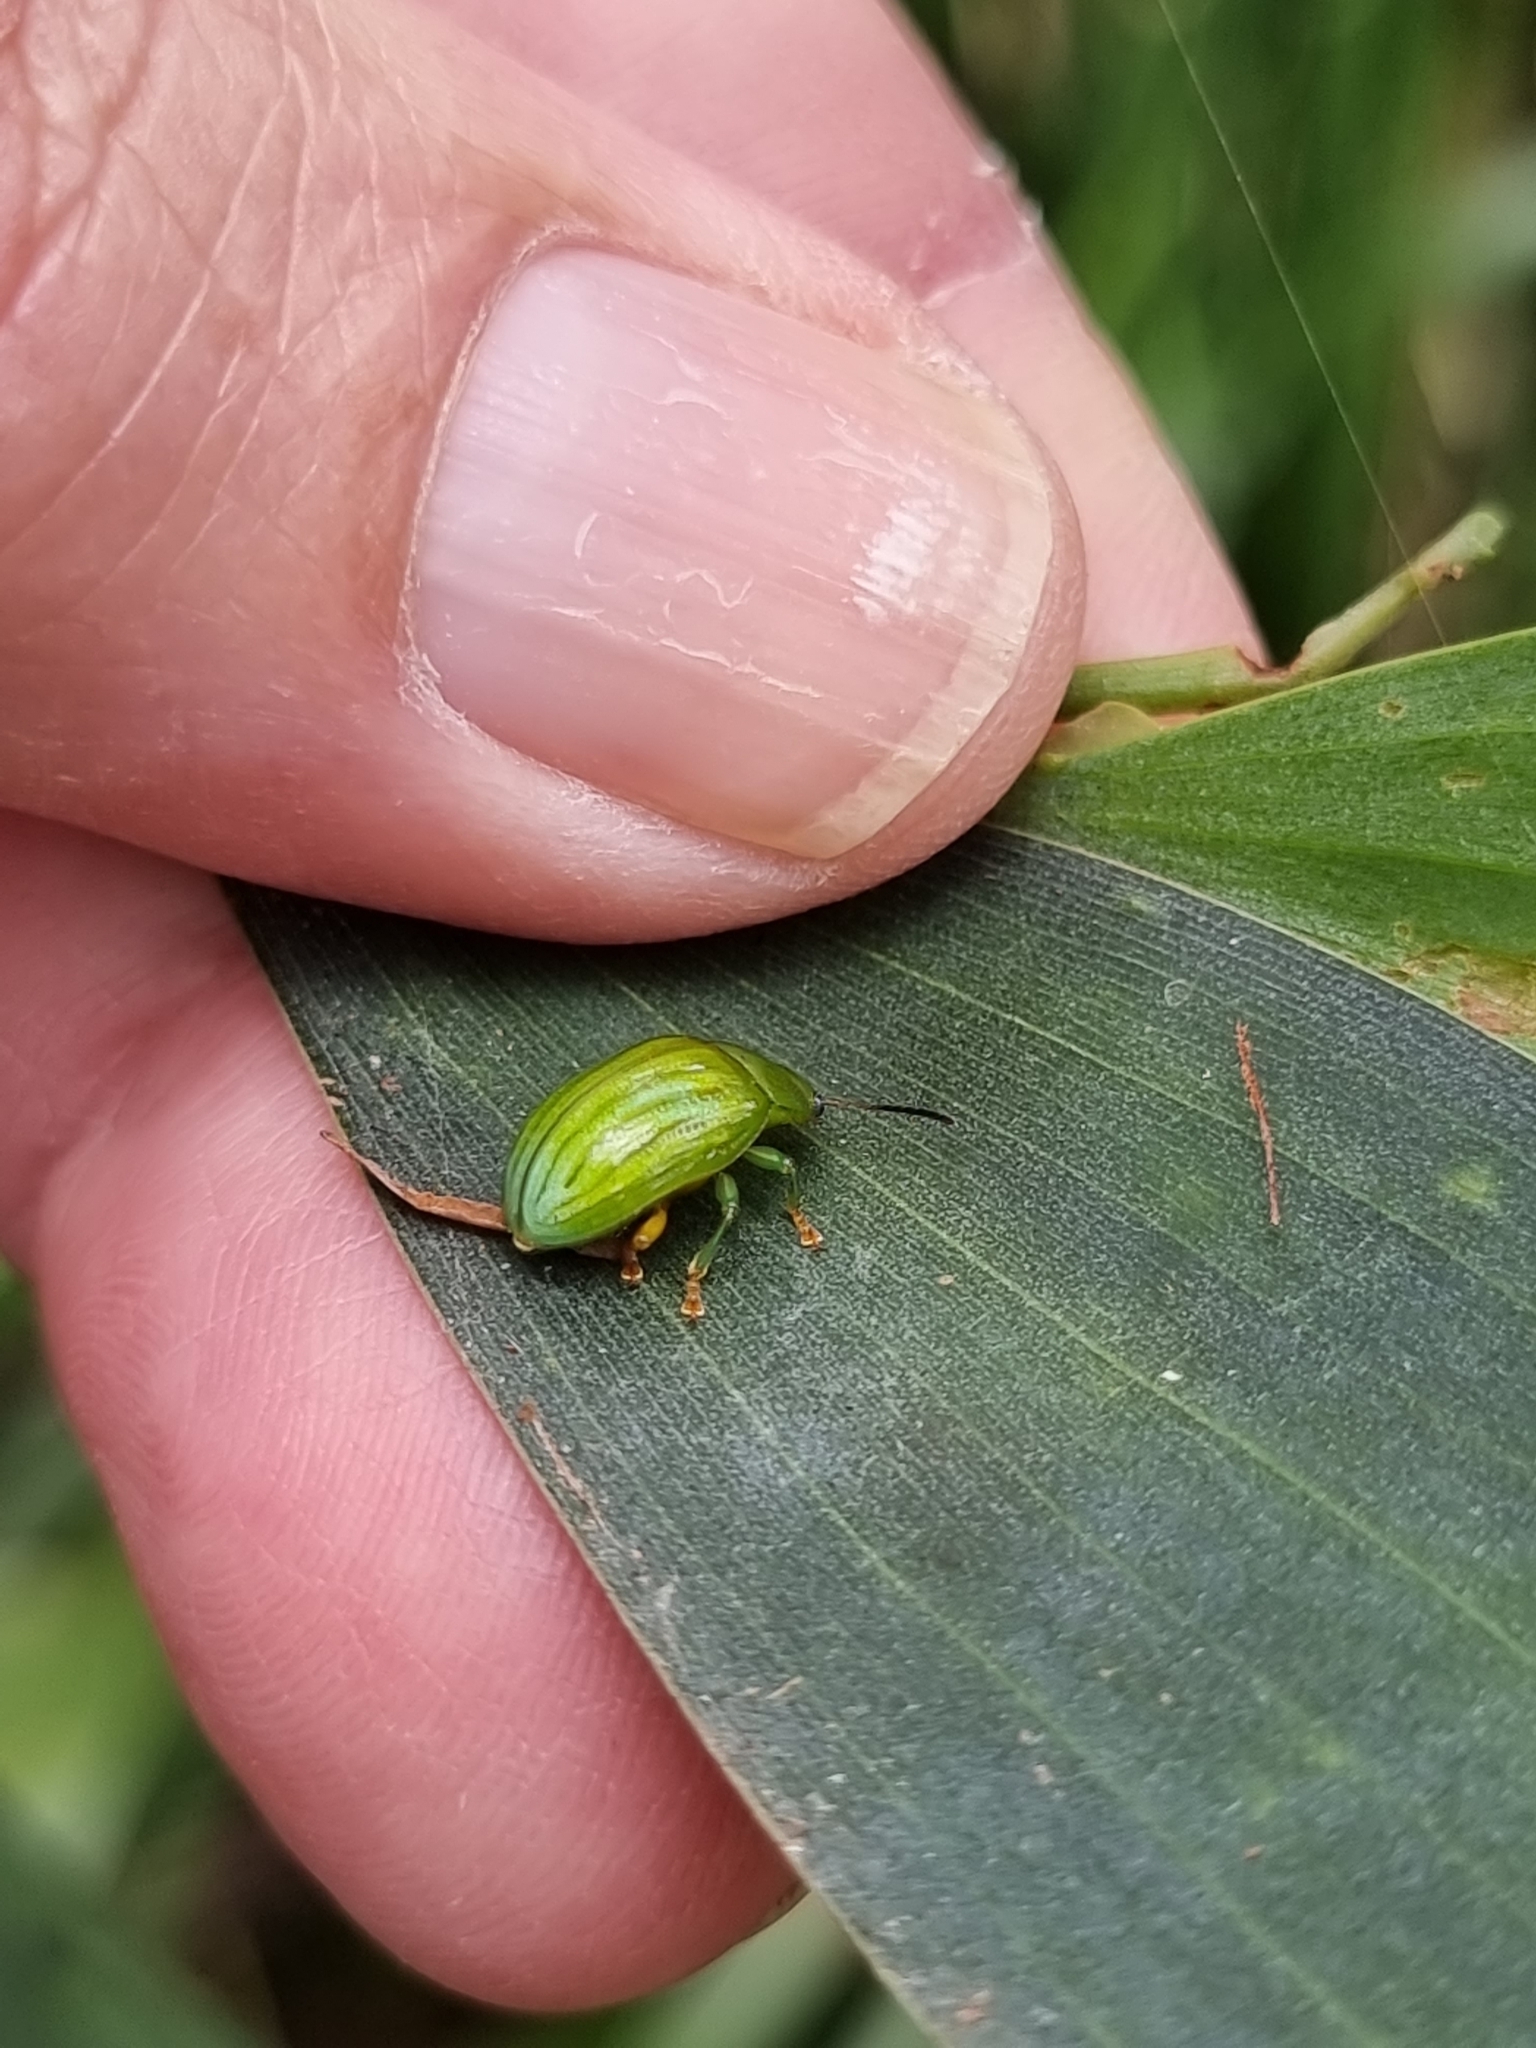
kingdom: Animalia
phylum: Arthropoda
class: Insecta
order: Coleoptera
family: Chrysomelidae
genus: Calomela
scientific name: Calomela
